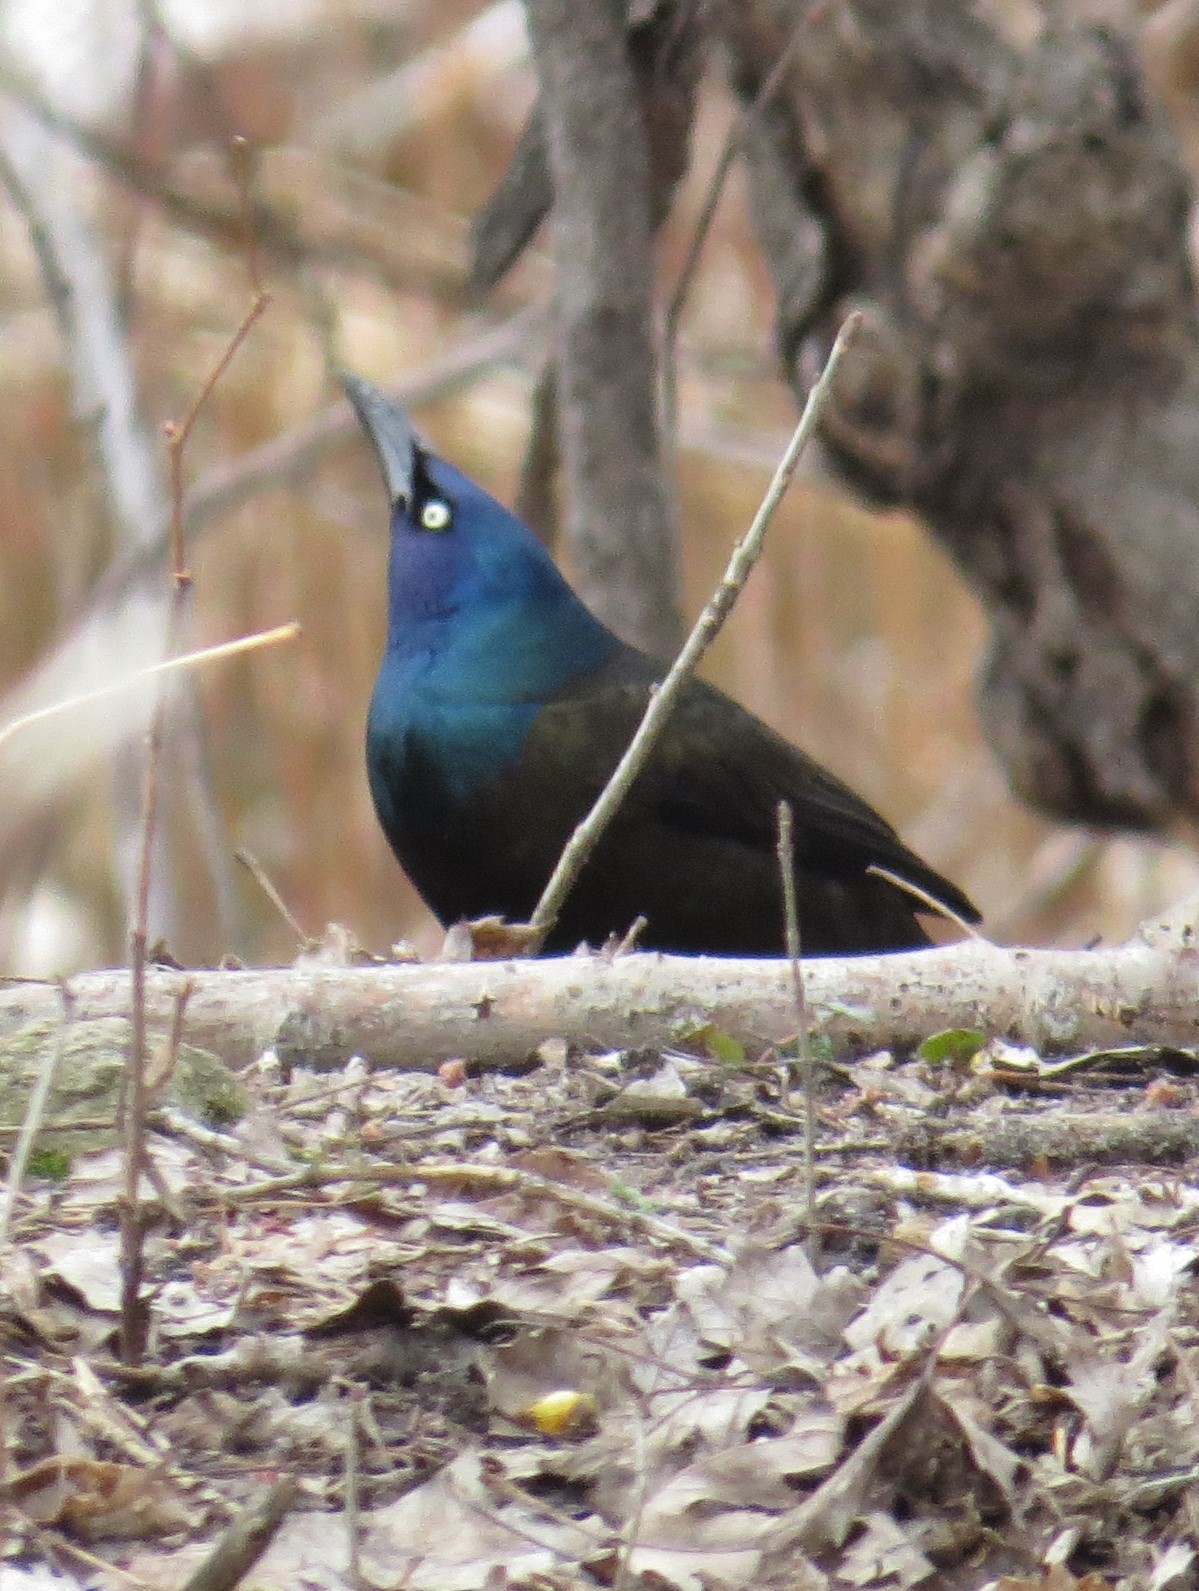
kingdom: Animalia
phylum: Chordata
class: Aves
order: Passeriformes
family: Icteridae
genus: Quiscalus
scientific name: Quiscalus quiscula
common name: Common grackle
